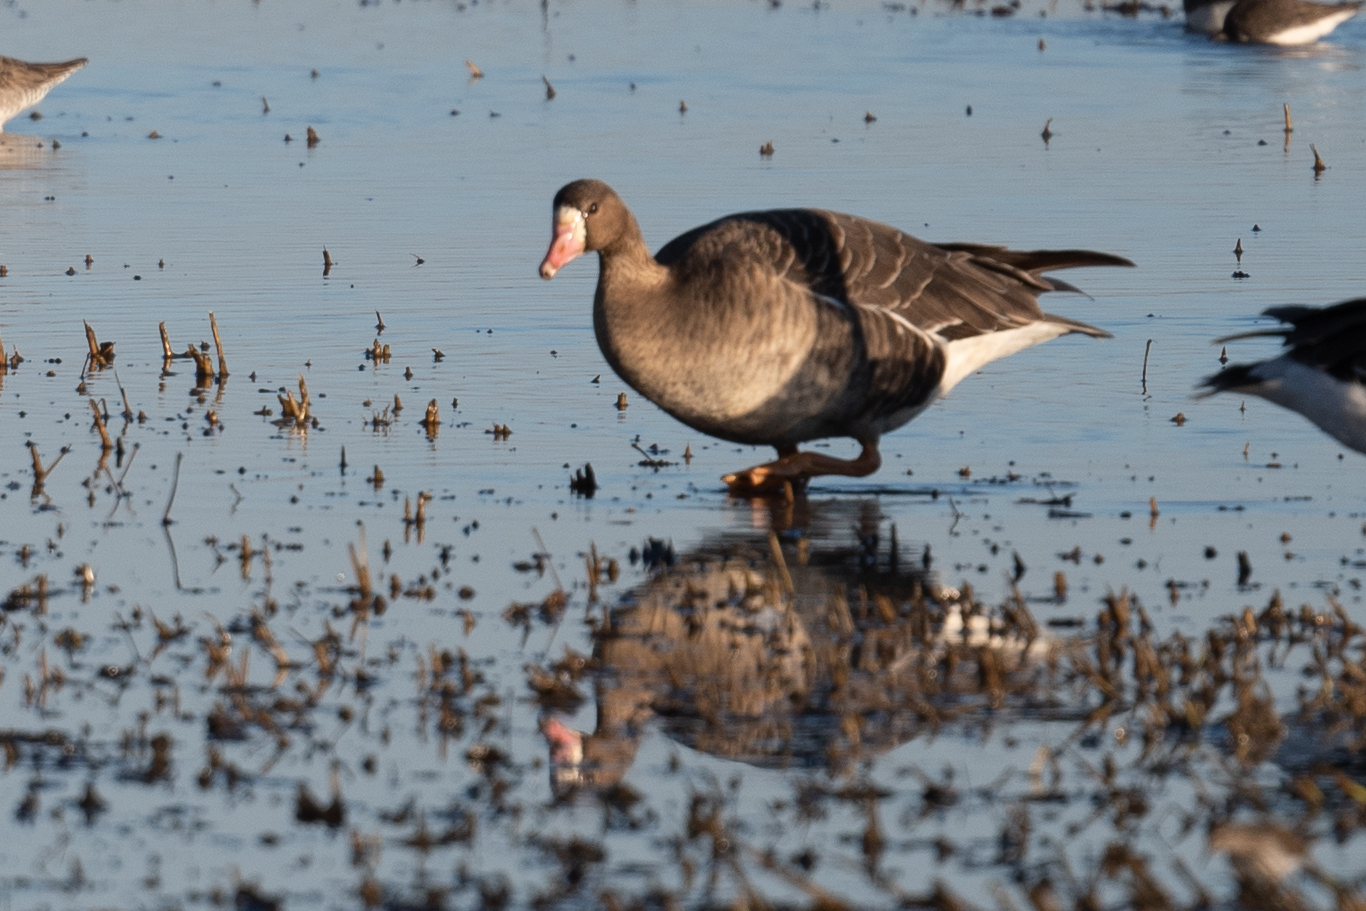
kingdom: Animalia
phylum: Chordata
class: Aves
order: Anseriformes
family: Anatidae
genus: Anser
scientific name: Anser albifrons
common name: Greater white-fronted goose
